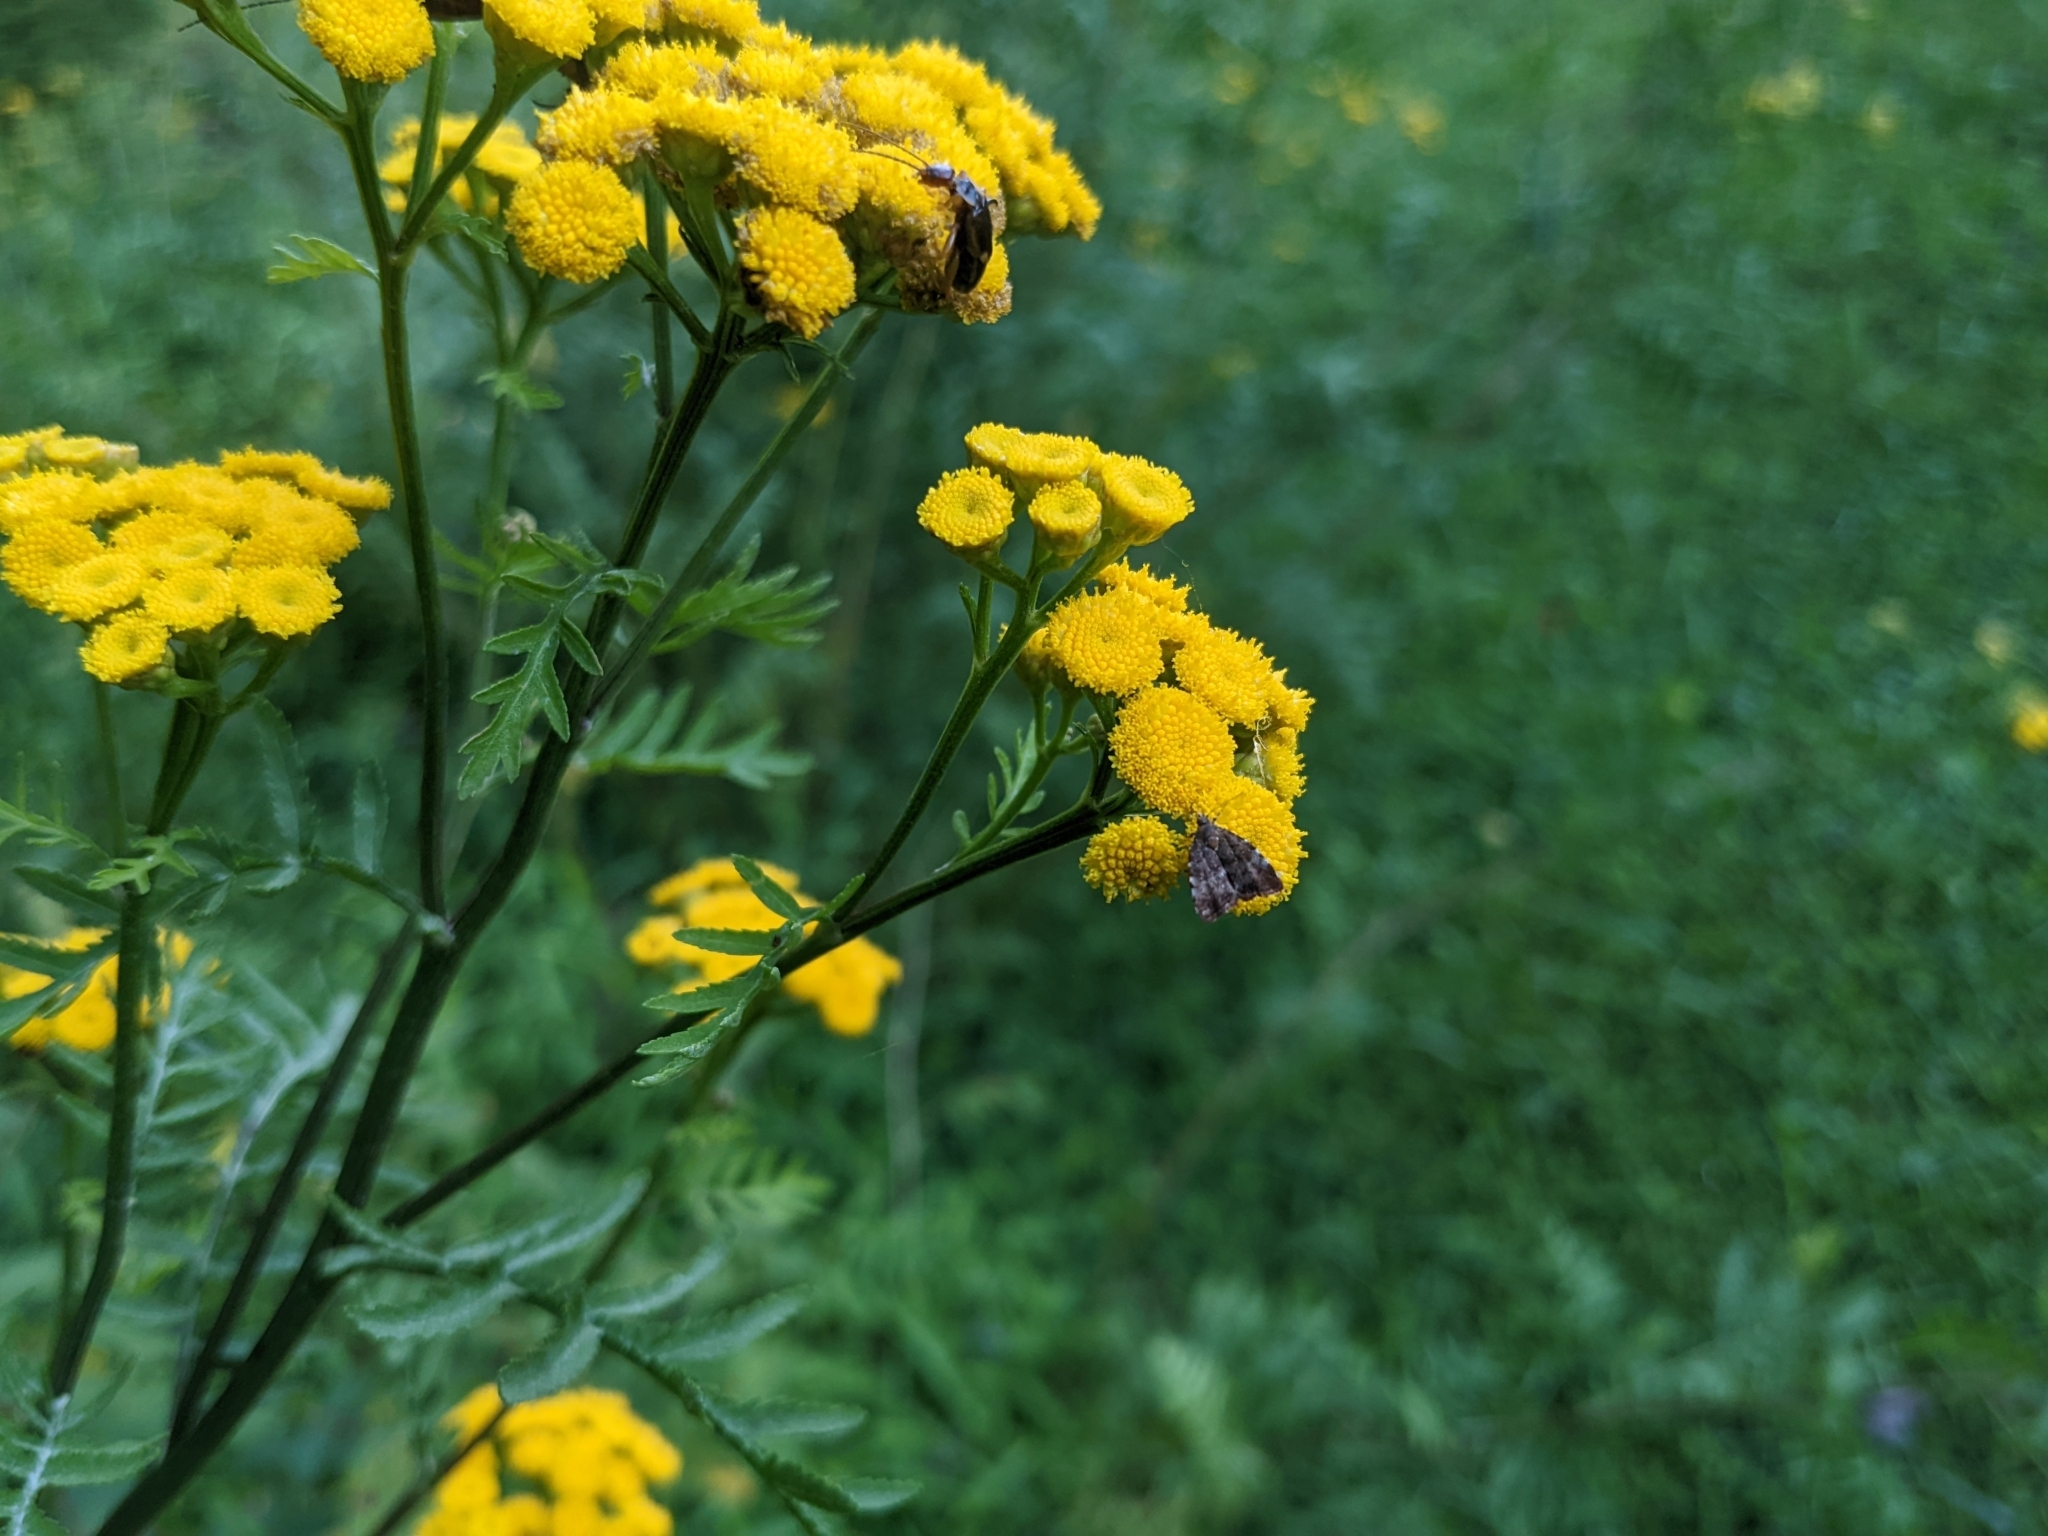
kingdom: Plantae
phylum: Tracheophyta
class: Magnoliopsida
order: Asterales
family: Asteraceae
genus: Tanacetum
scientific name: Tanacetum vulgare
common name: Common tansy
